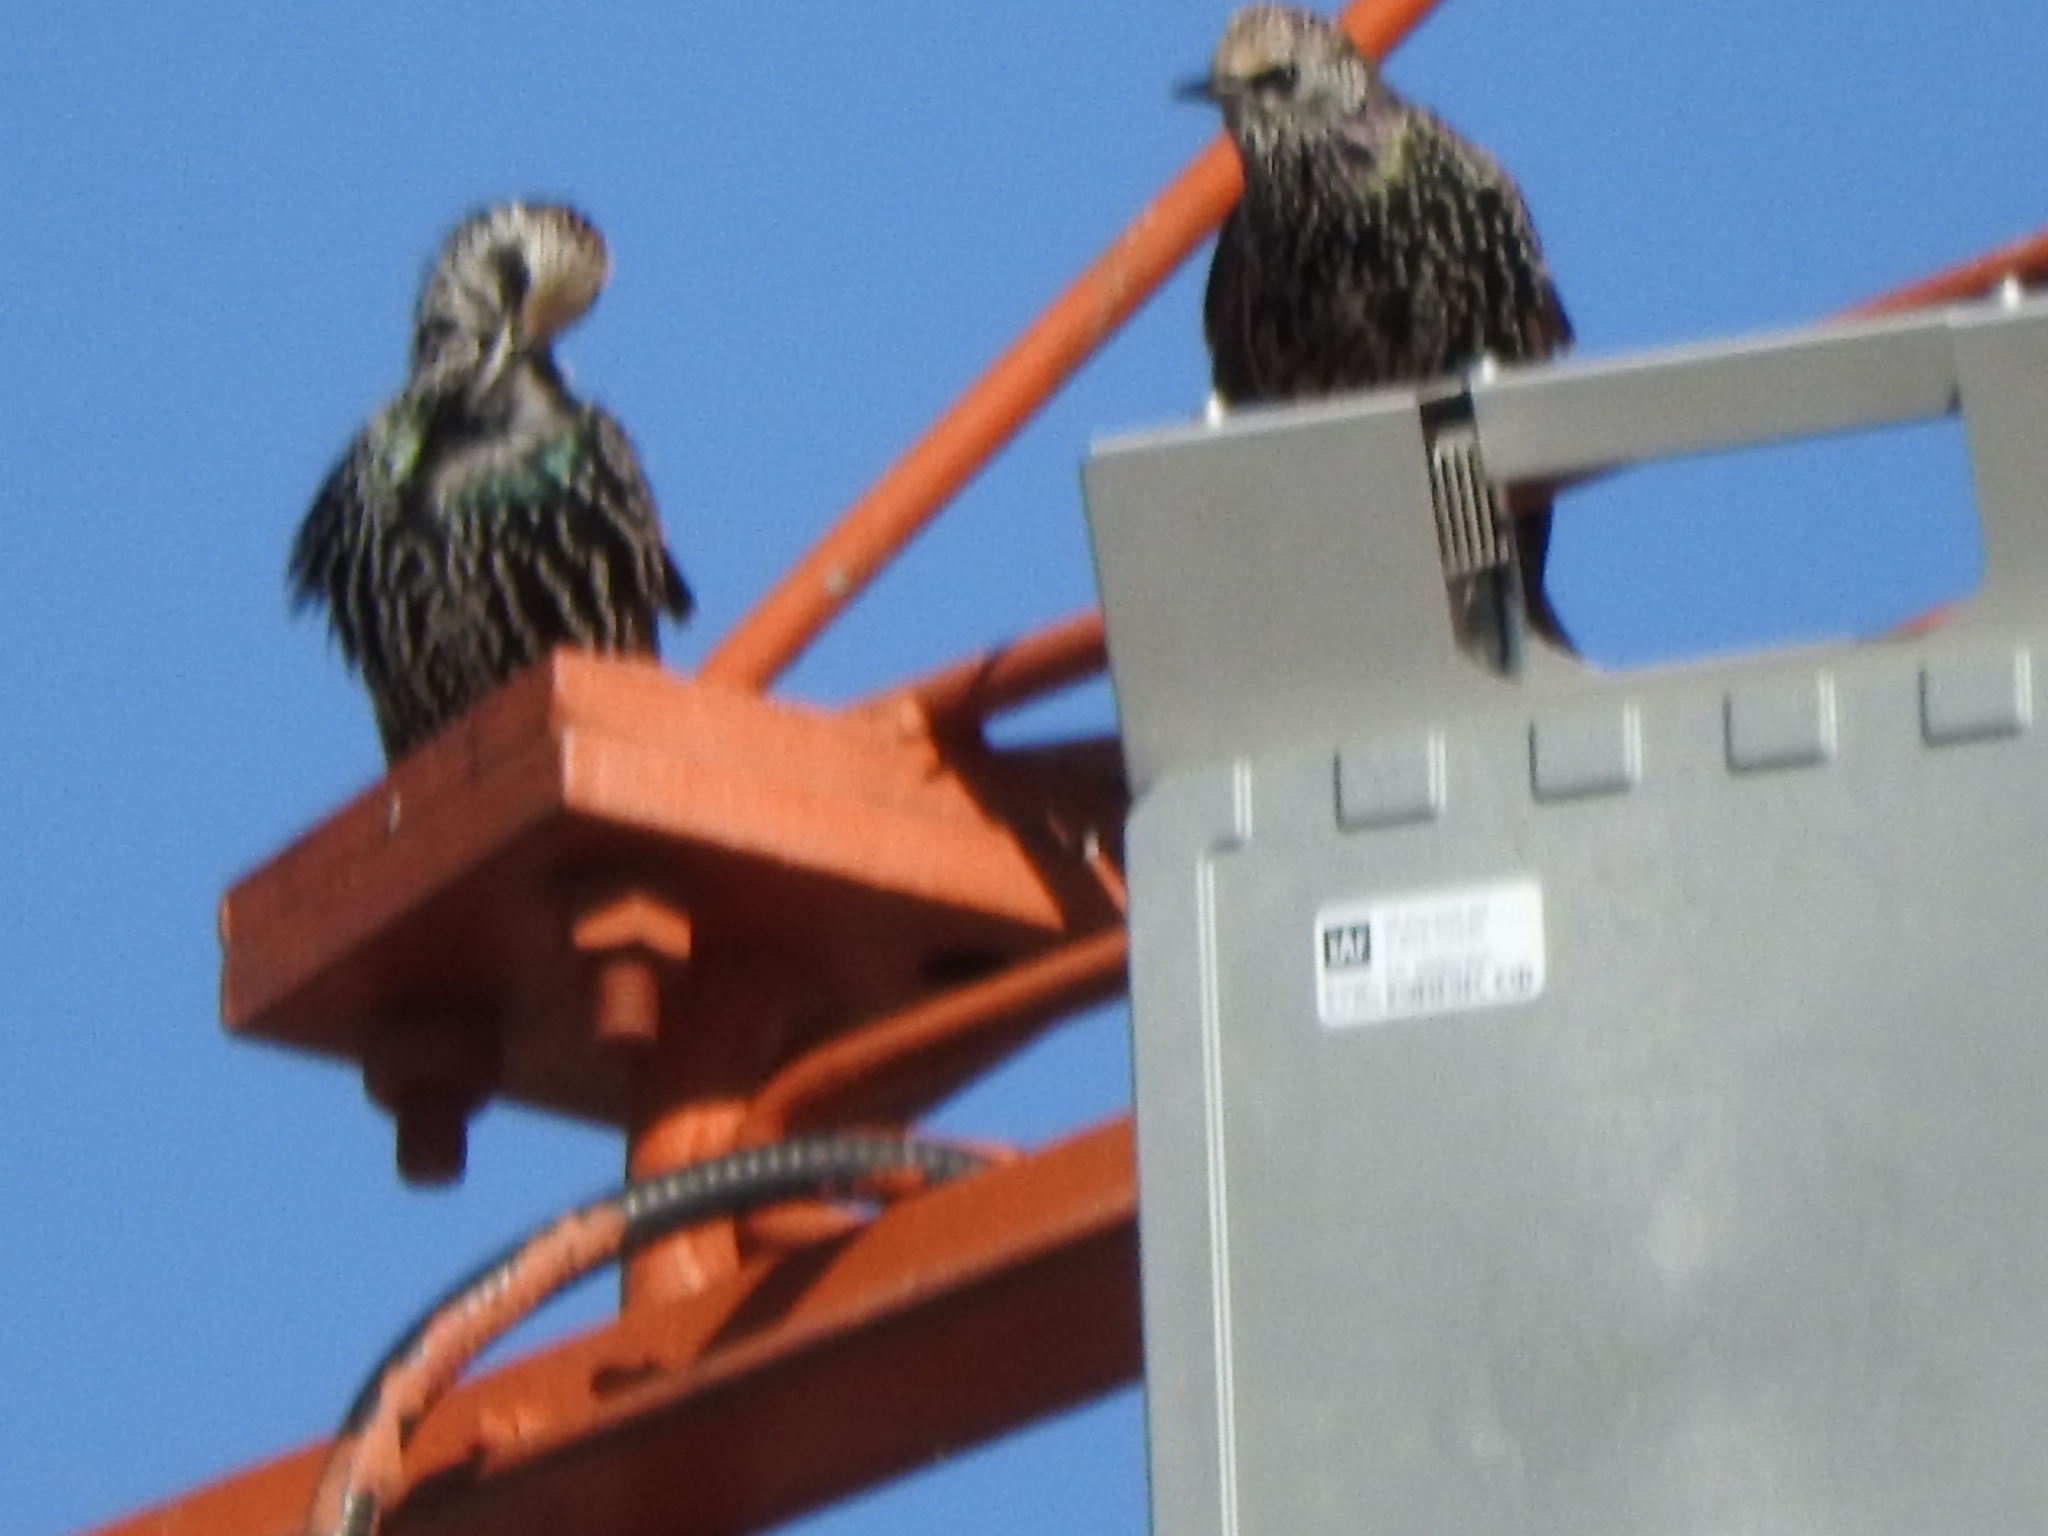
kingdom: Animalia
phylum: Chordata
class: Aves
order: Passeriformes
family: Sturnidae
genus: Sturnus
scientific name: Sturnus vulgaris
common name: Common starling
